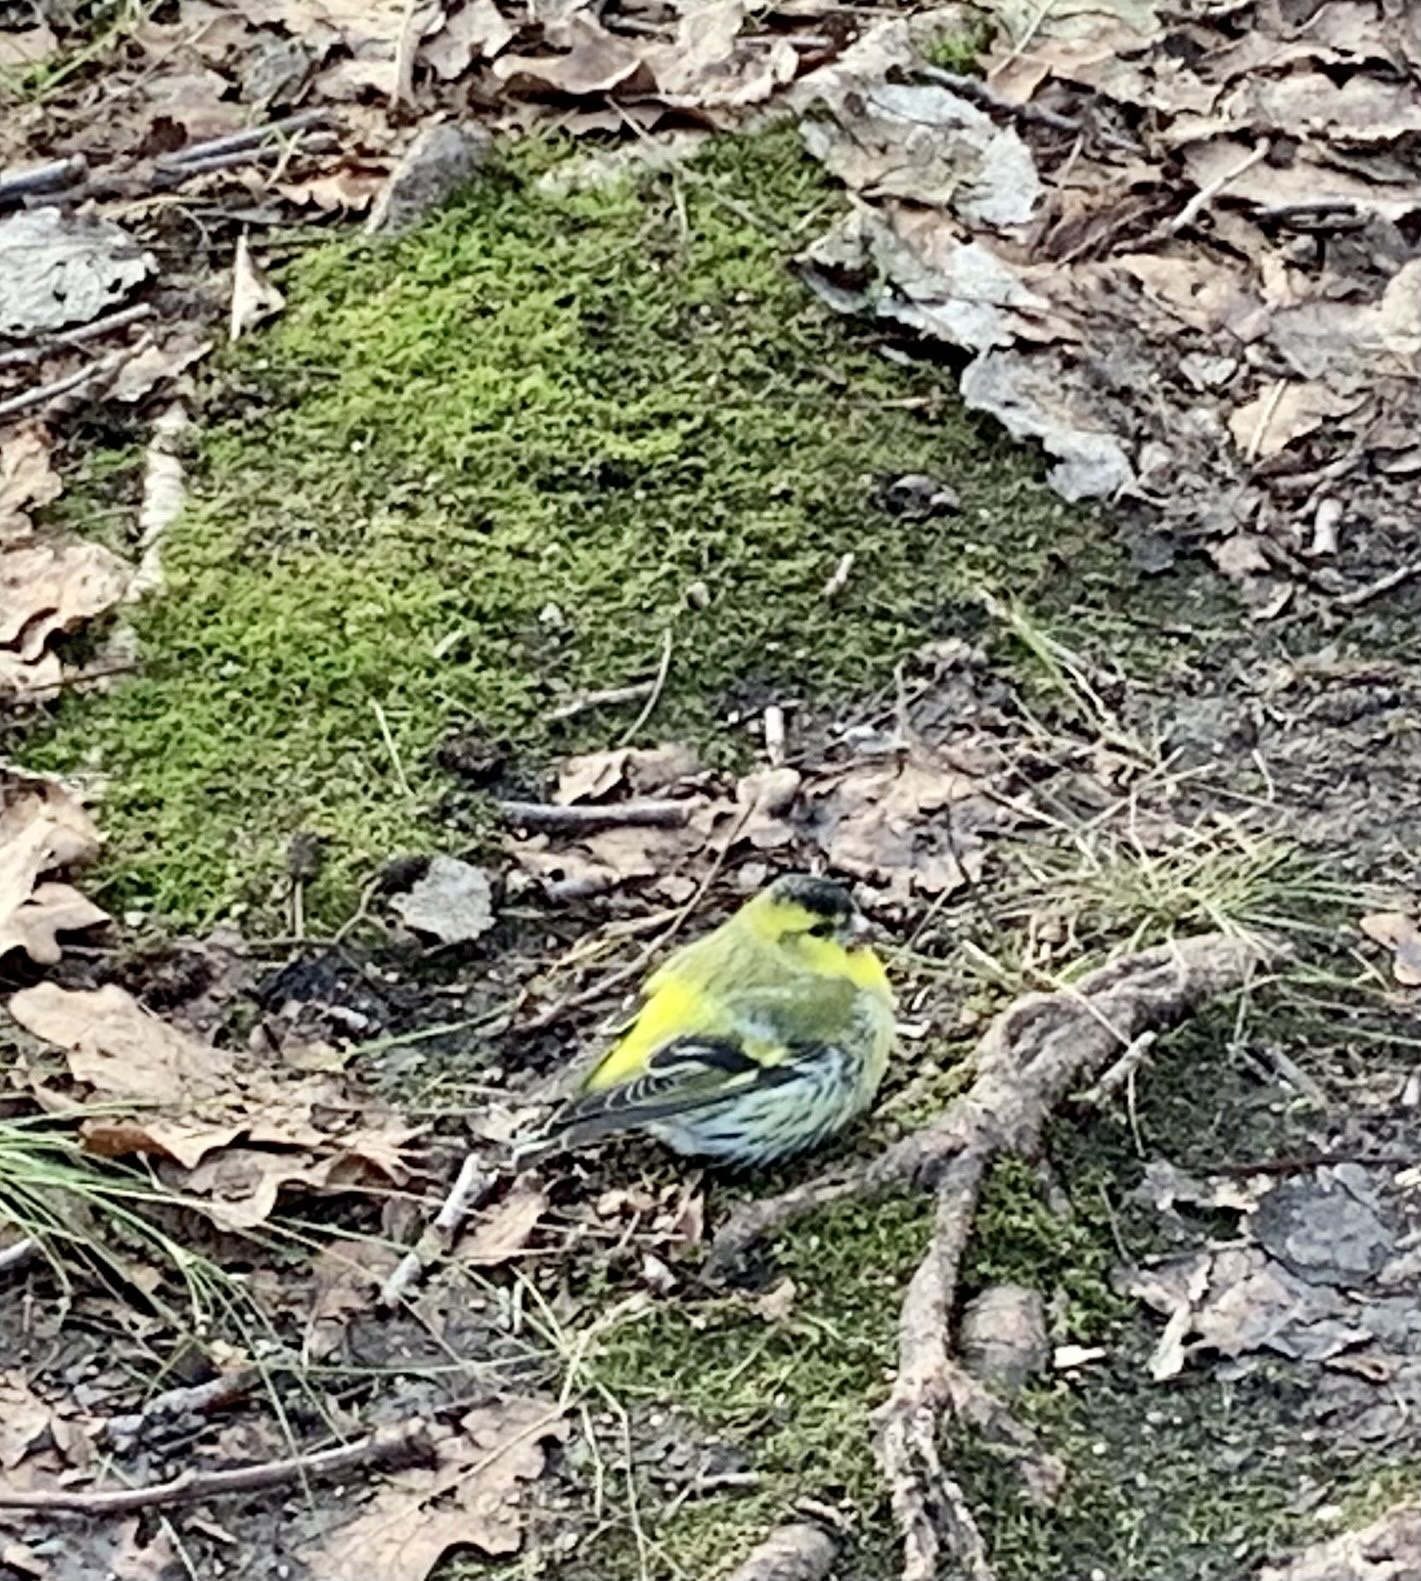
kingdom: Animalia
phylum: Chordata
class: Aves
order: Passeriformes
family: Fringillidae
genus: Spinus
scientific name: Spinus spinus
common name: Eurasian siskin
